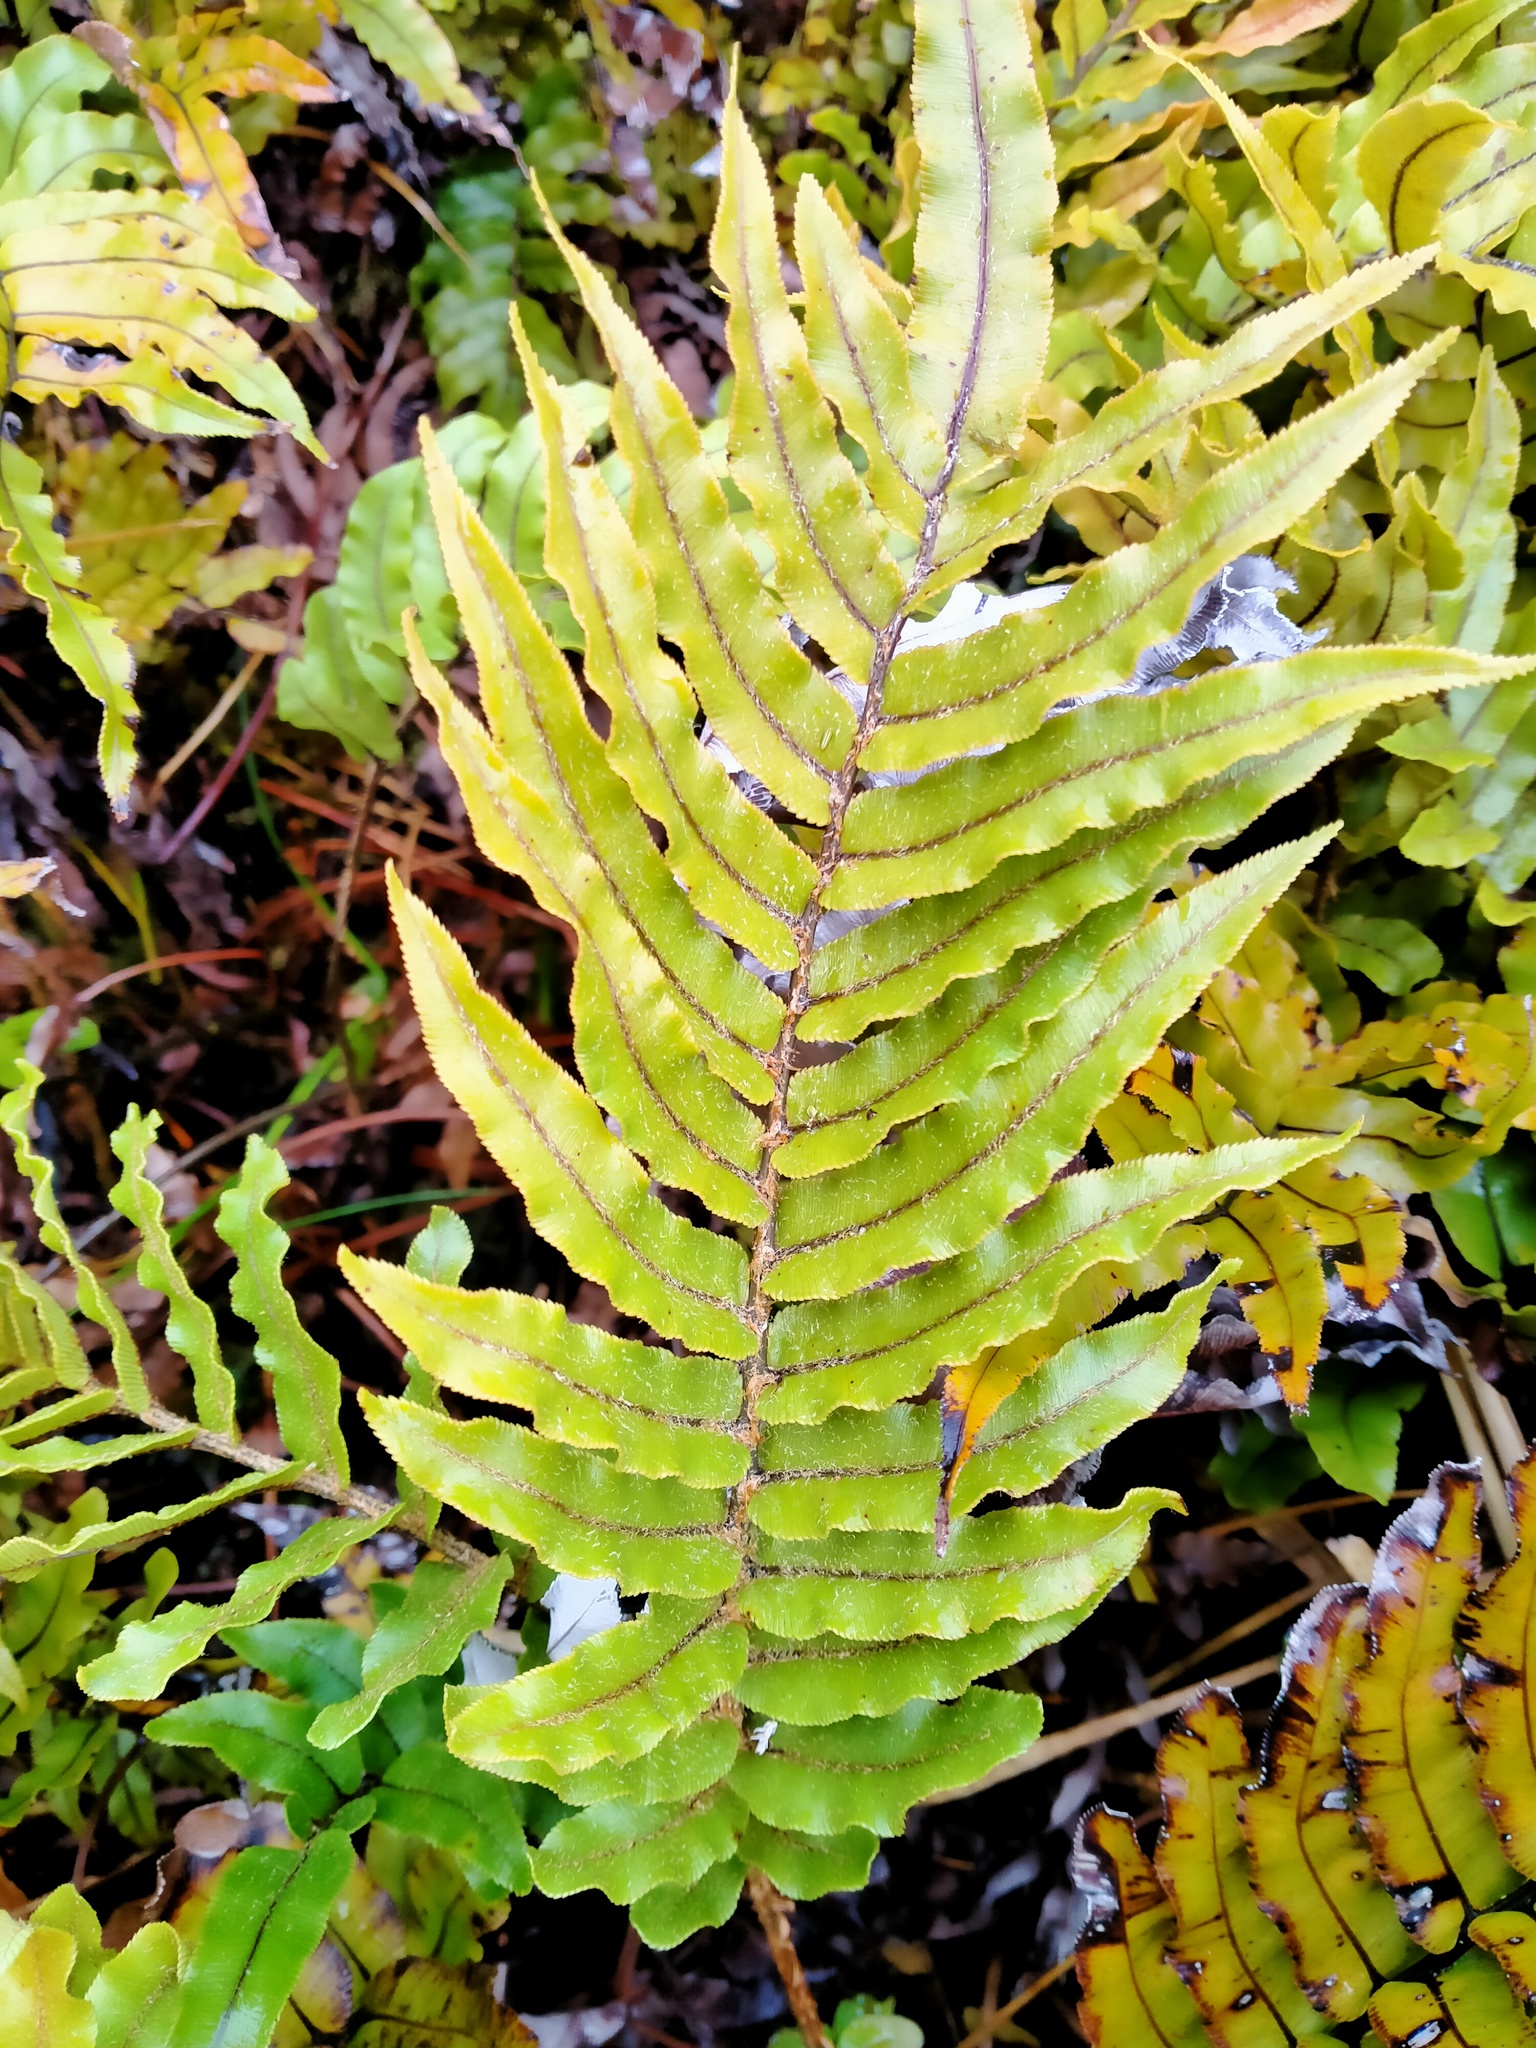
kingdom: Plantae
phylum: Tracheophyta
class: Polypodiopsida
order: Polypodiales
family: Blechnaceae
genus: Parablechnum
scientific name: Parablechnum montanum
